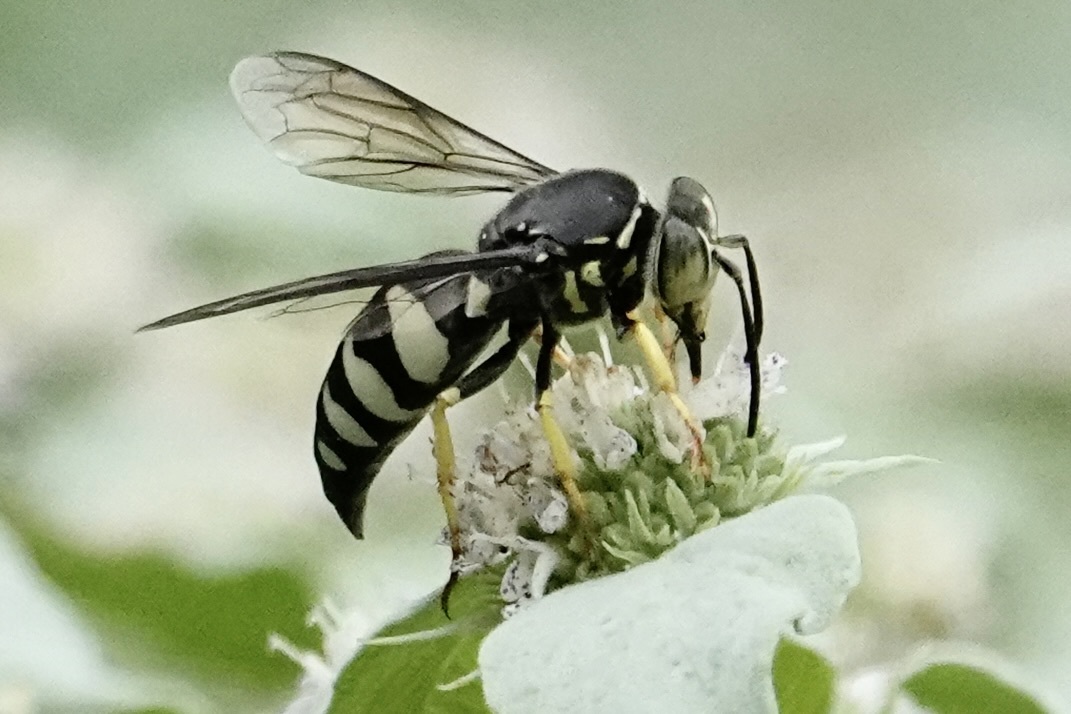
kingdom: Animalia
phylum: Arthropoda
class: Insecta
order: Hymenoptera
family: Crabronidae
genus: Bicyrtes
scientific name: Bicyrtes quadrifasciatus
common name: Four-banded stink bug hunter wasp
